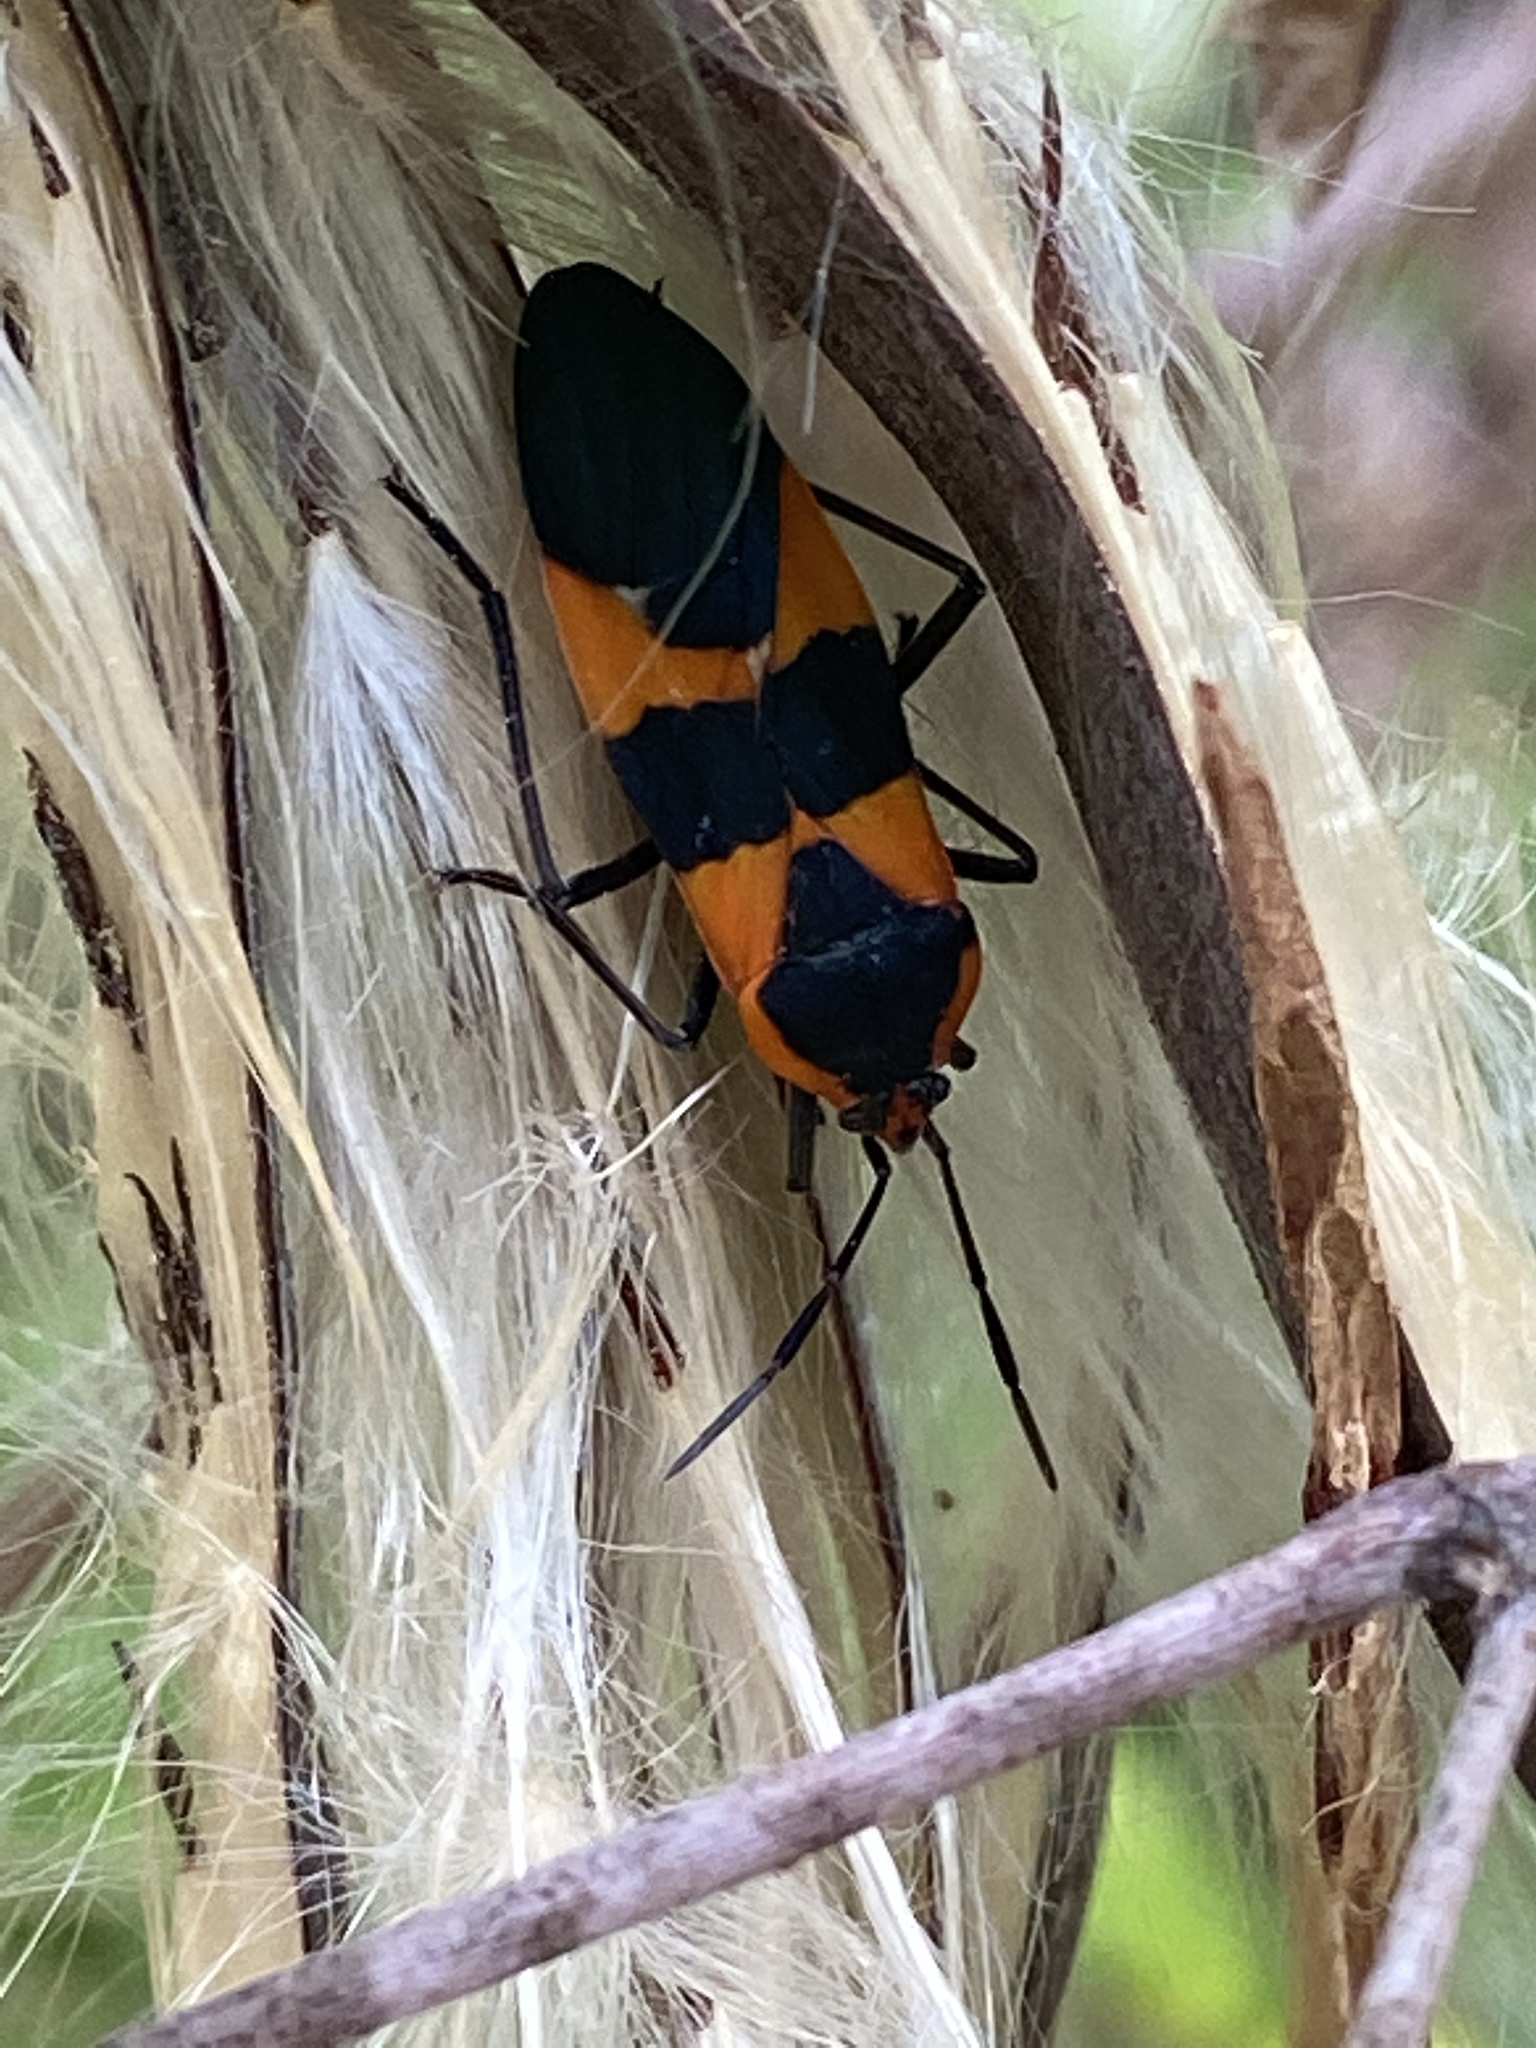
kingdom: Animalia
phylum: Arthropoda
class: Insecta
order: Hemiptera
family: Lygaeidae
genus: Oncopeltus
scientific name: Oncopeltus fasciatus
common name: Large milkweed bug
